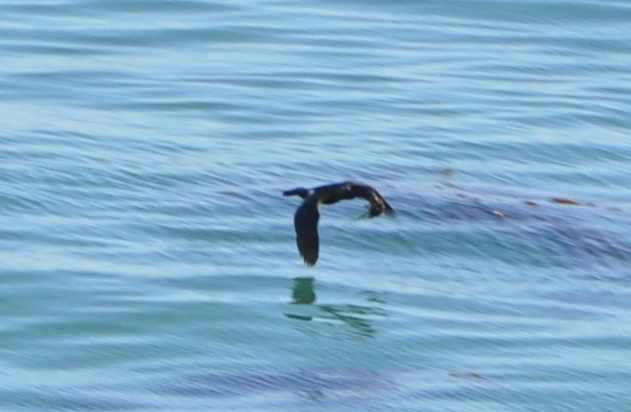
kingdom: Animalia
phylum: Chordata
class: Aves
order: Suliformes
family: Phalacrocoracidae
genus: Phalacrocorax
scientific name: Phalacrocorax pelagicus
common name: Pelagic cormorant
